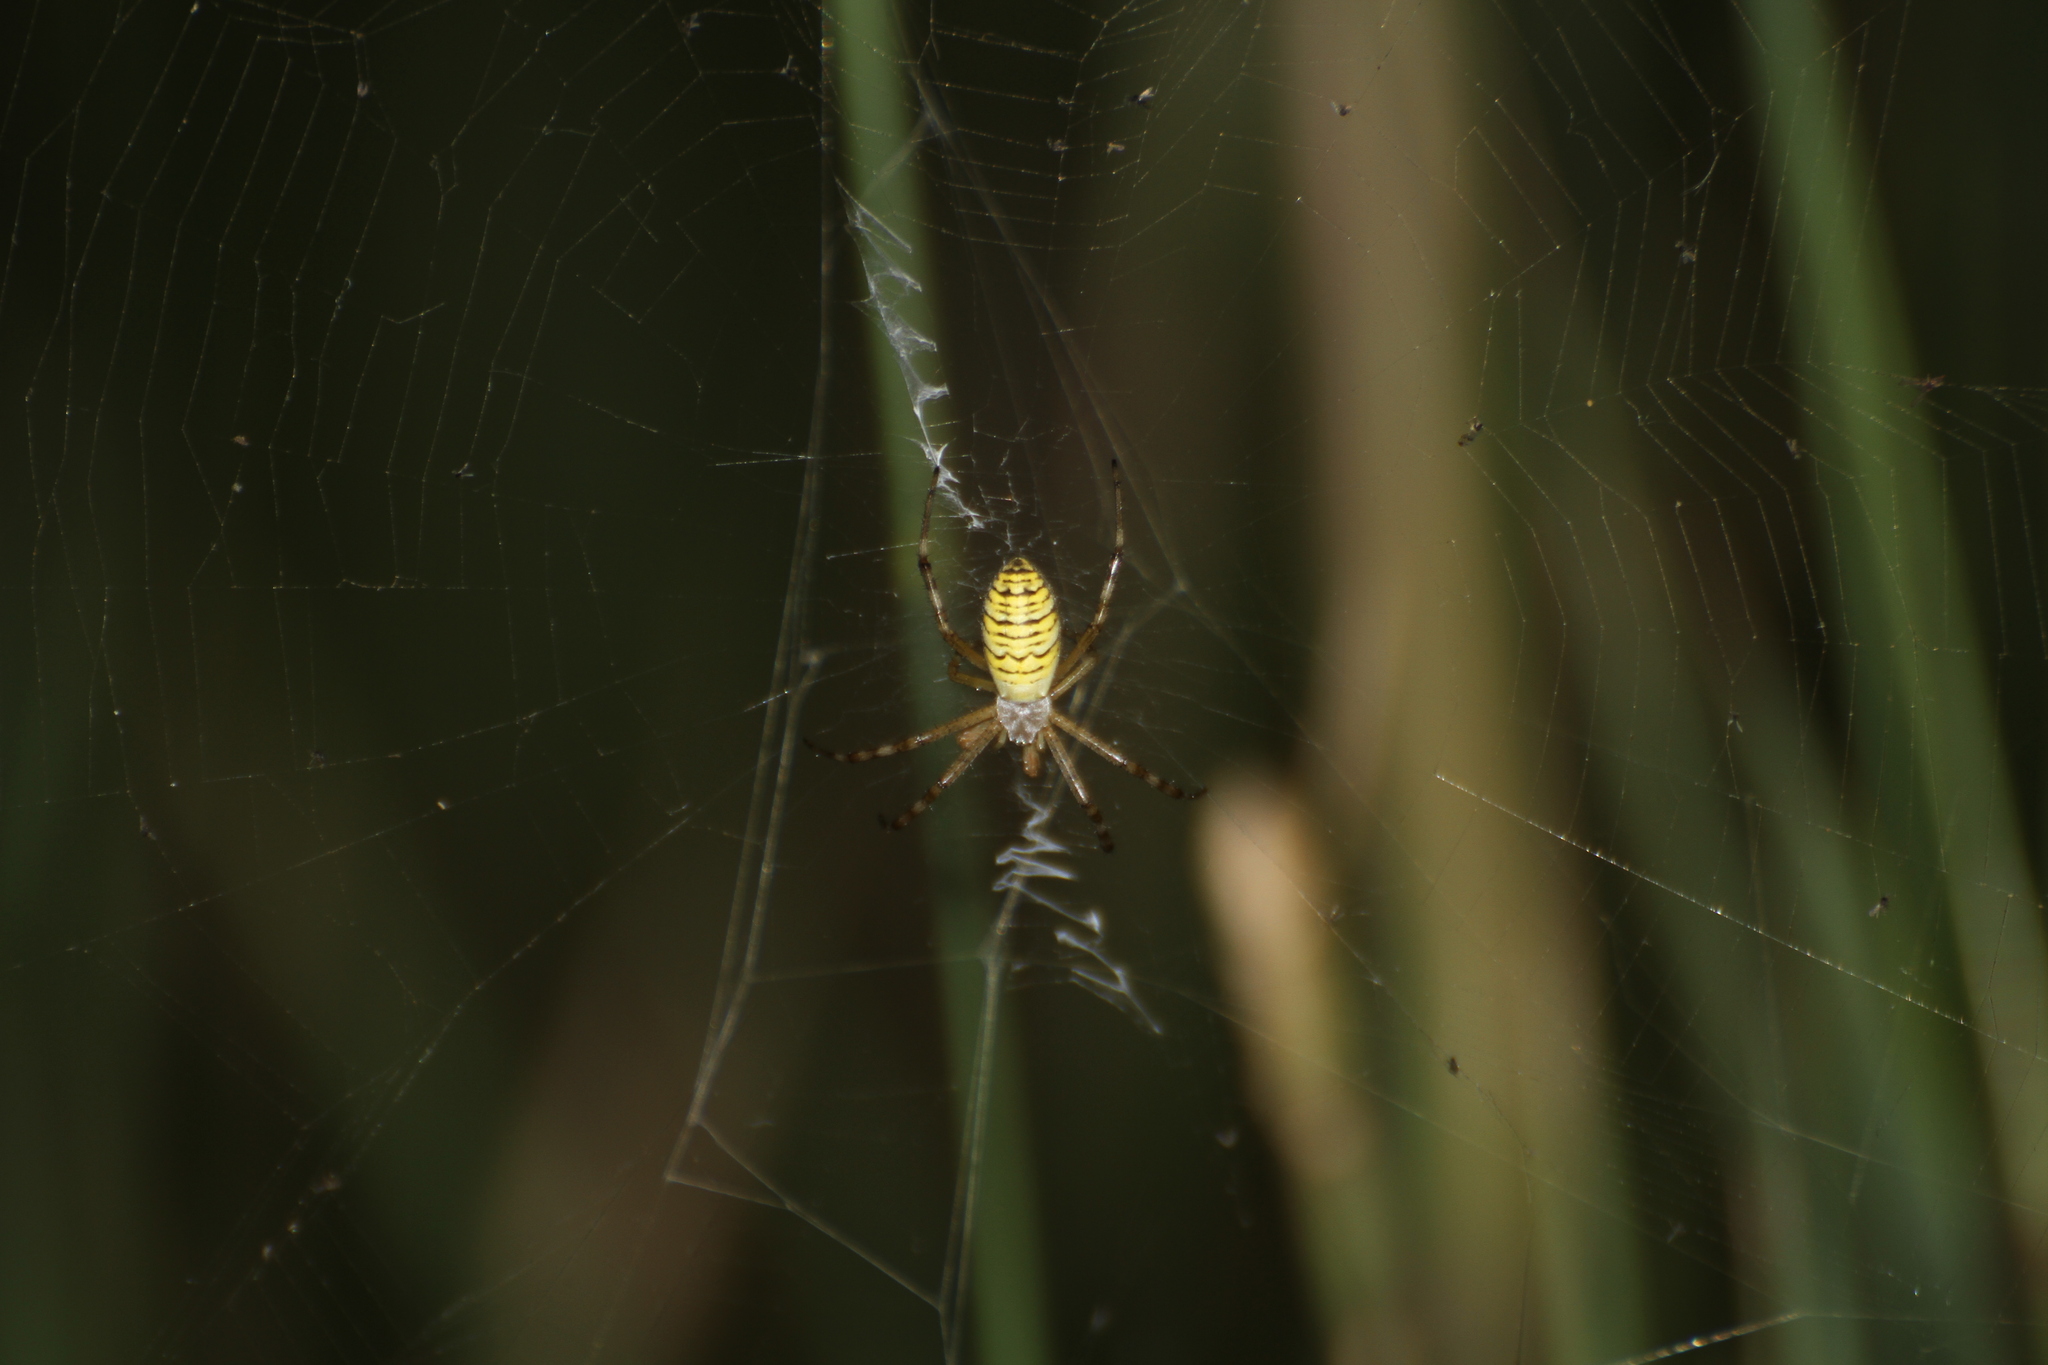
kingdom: Animalia
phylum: Arthropoda
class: Arachnida
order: Araneae
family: Araneidae
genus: Argiope
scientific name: Argiope bruennichi
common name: Wasp spider
